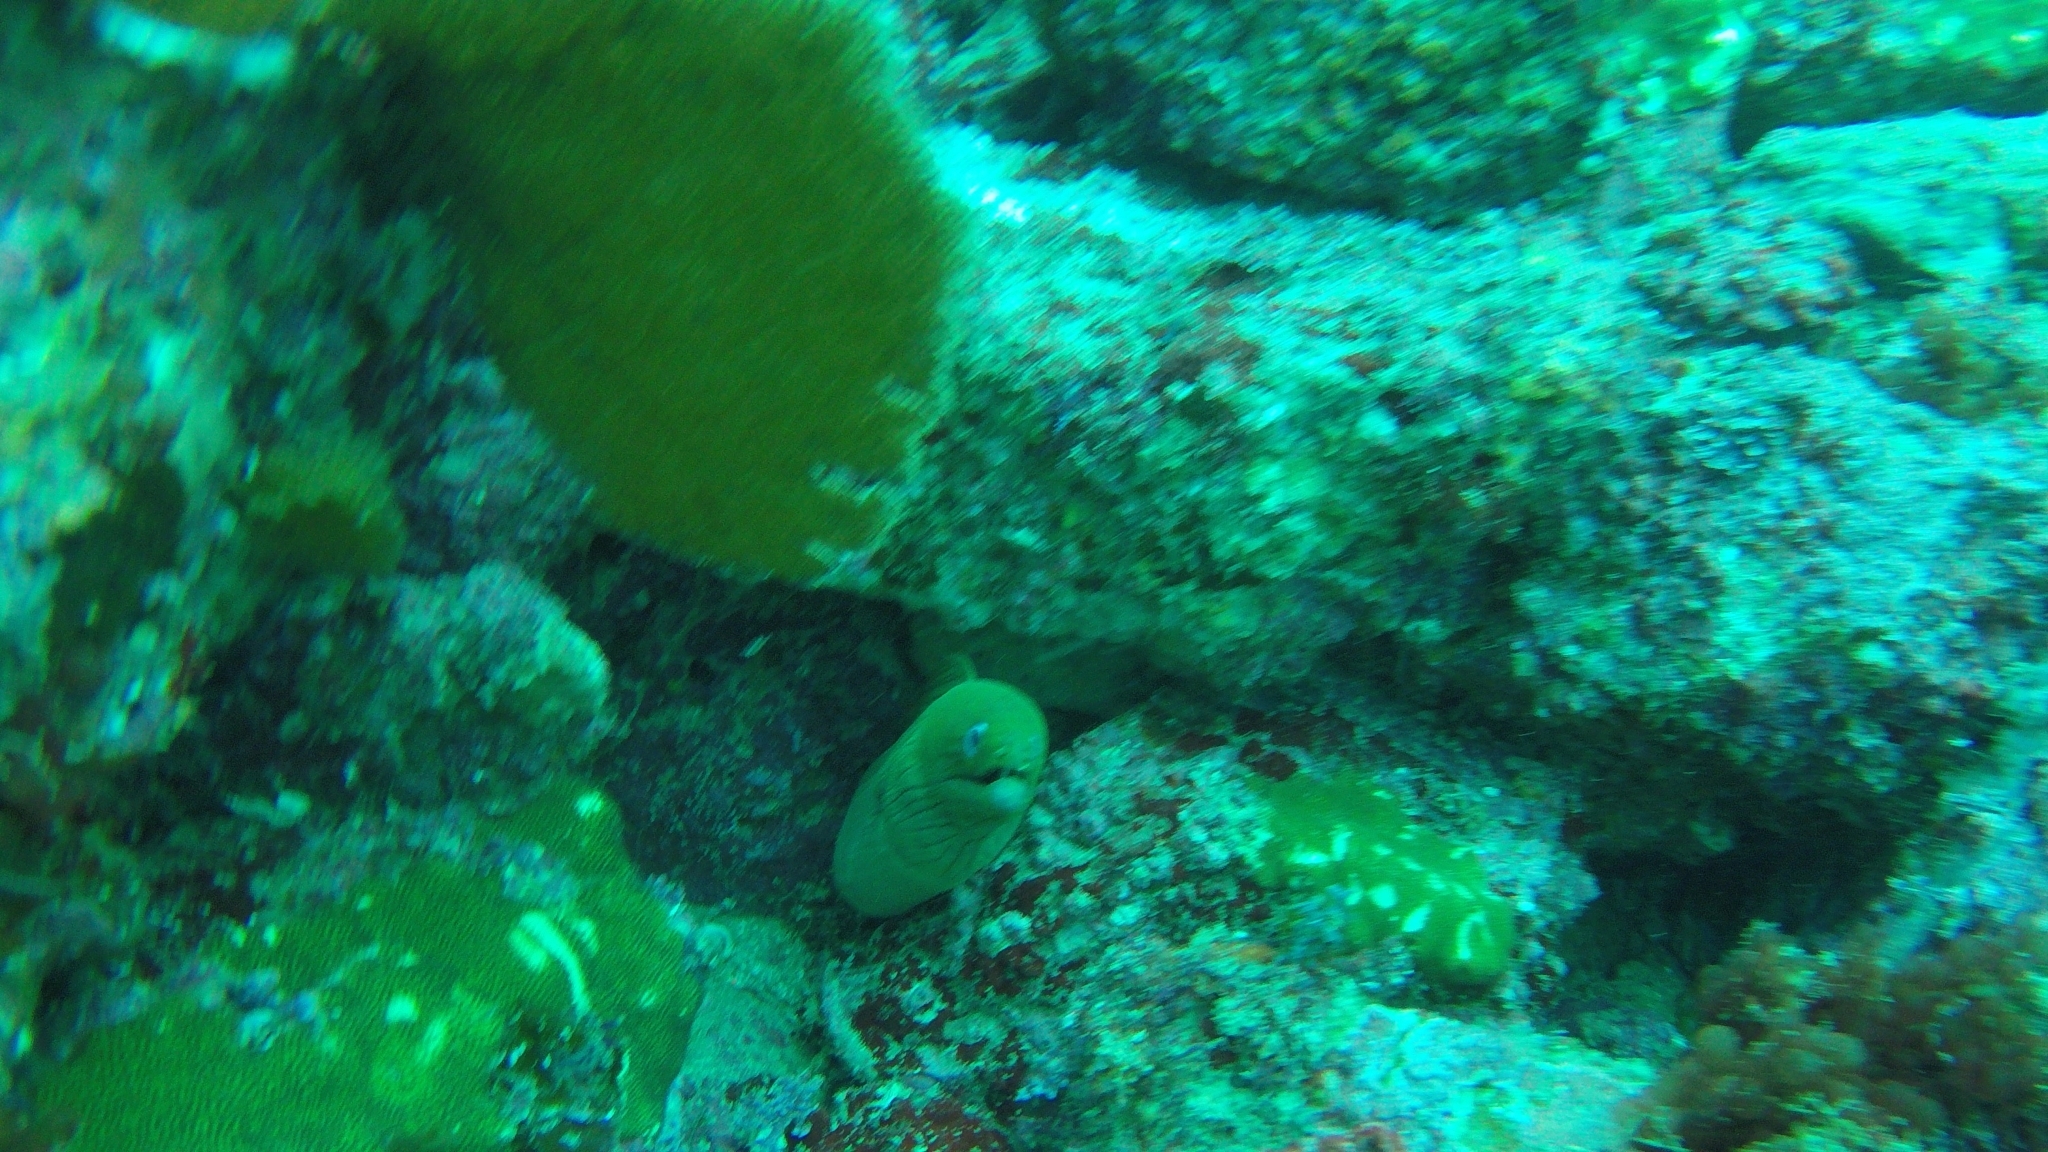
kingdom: Animalia
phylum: Chordata
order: Anguilliformes
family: Muraenidae
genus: Gymnothorax
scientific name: Gymnothorax castaneus
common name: Chestnut moray
